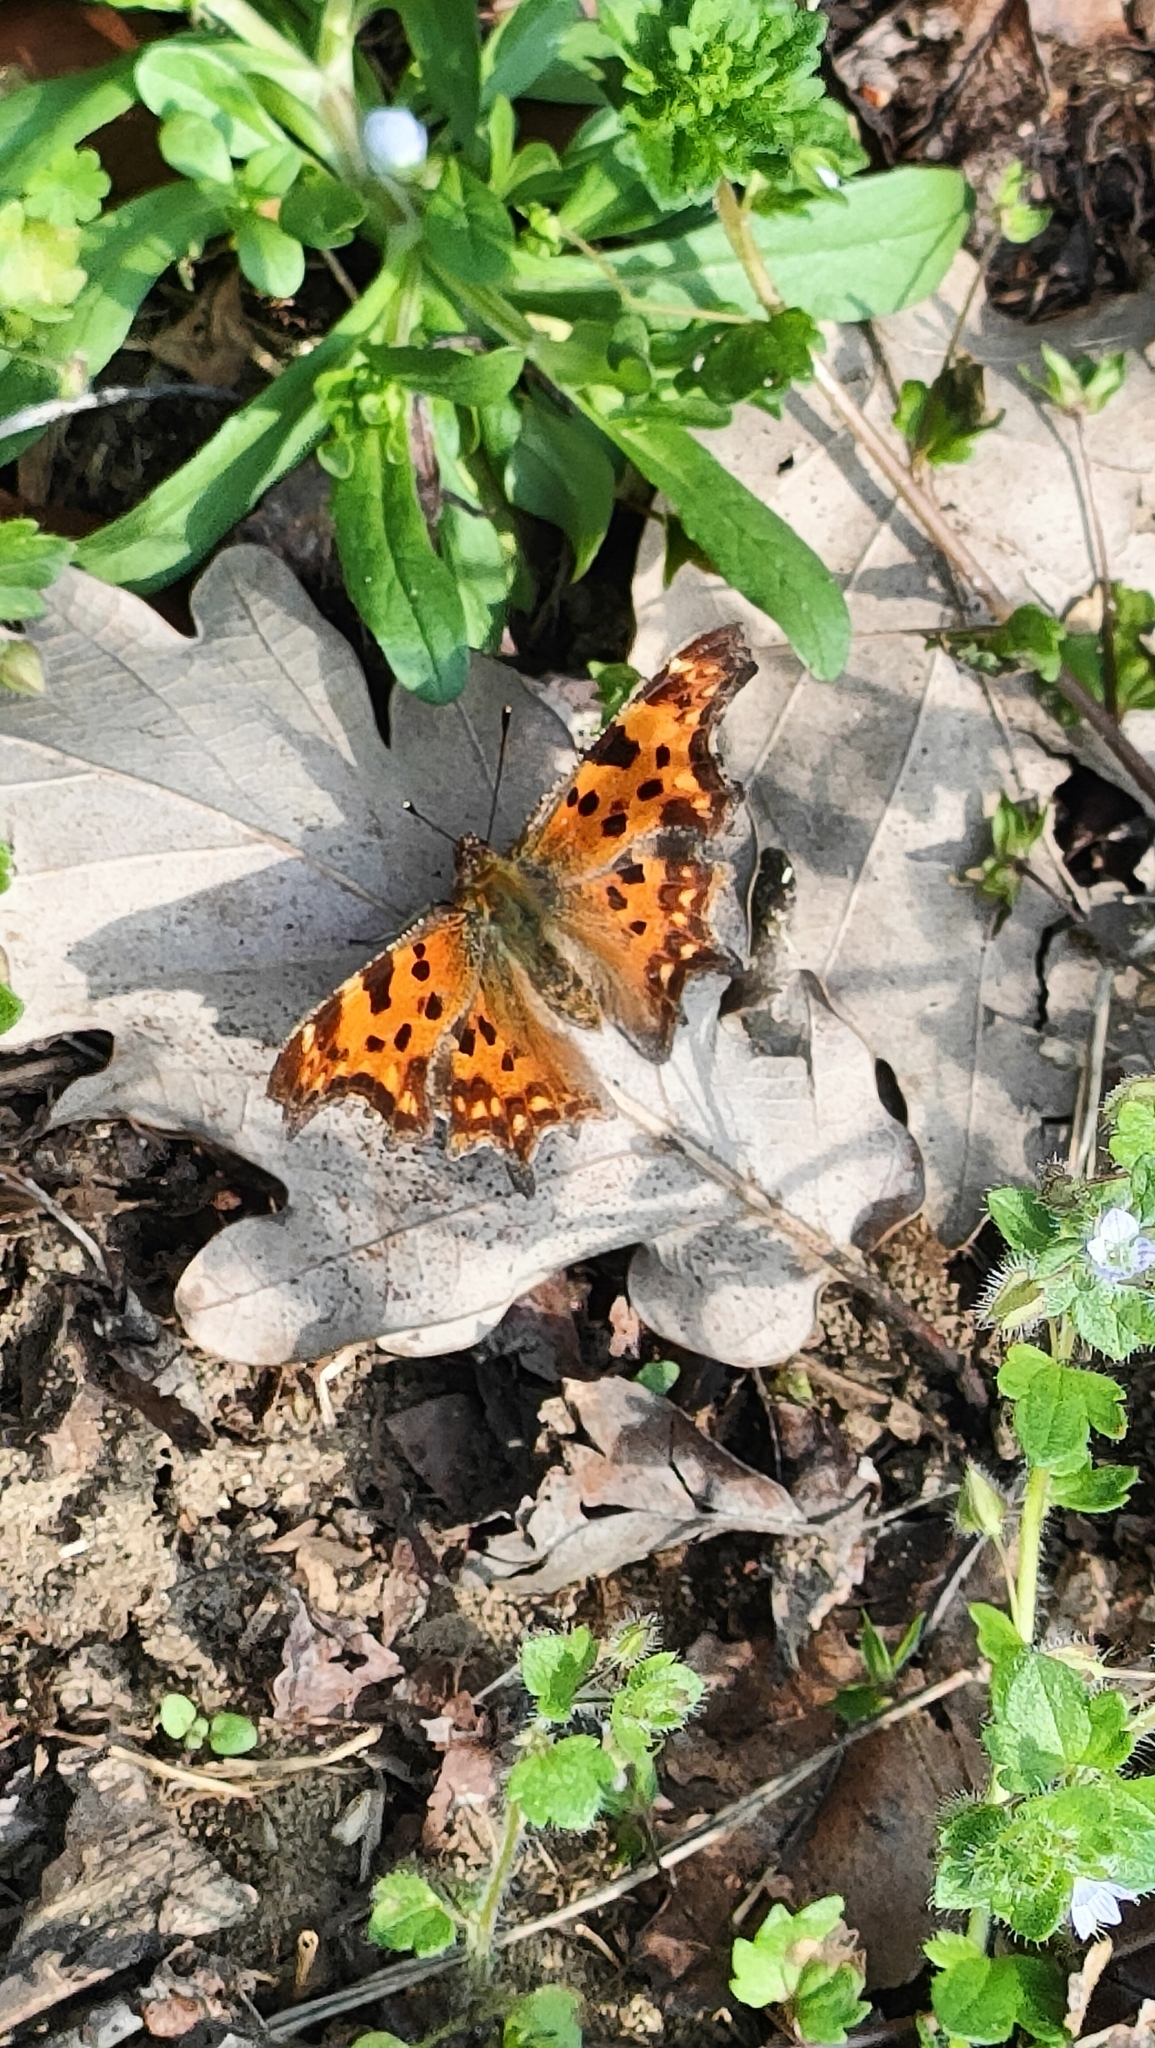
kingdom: Animalia
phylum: Arthropoda
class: Insecta
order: Lepidoptera
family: Nymphalidae
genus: Polygonia
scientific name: Polygonia c-album
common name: Comma
